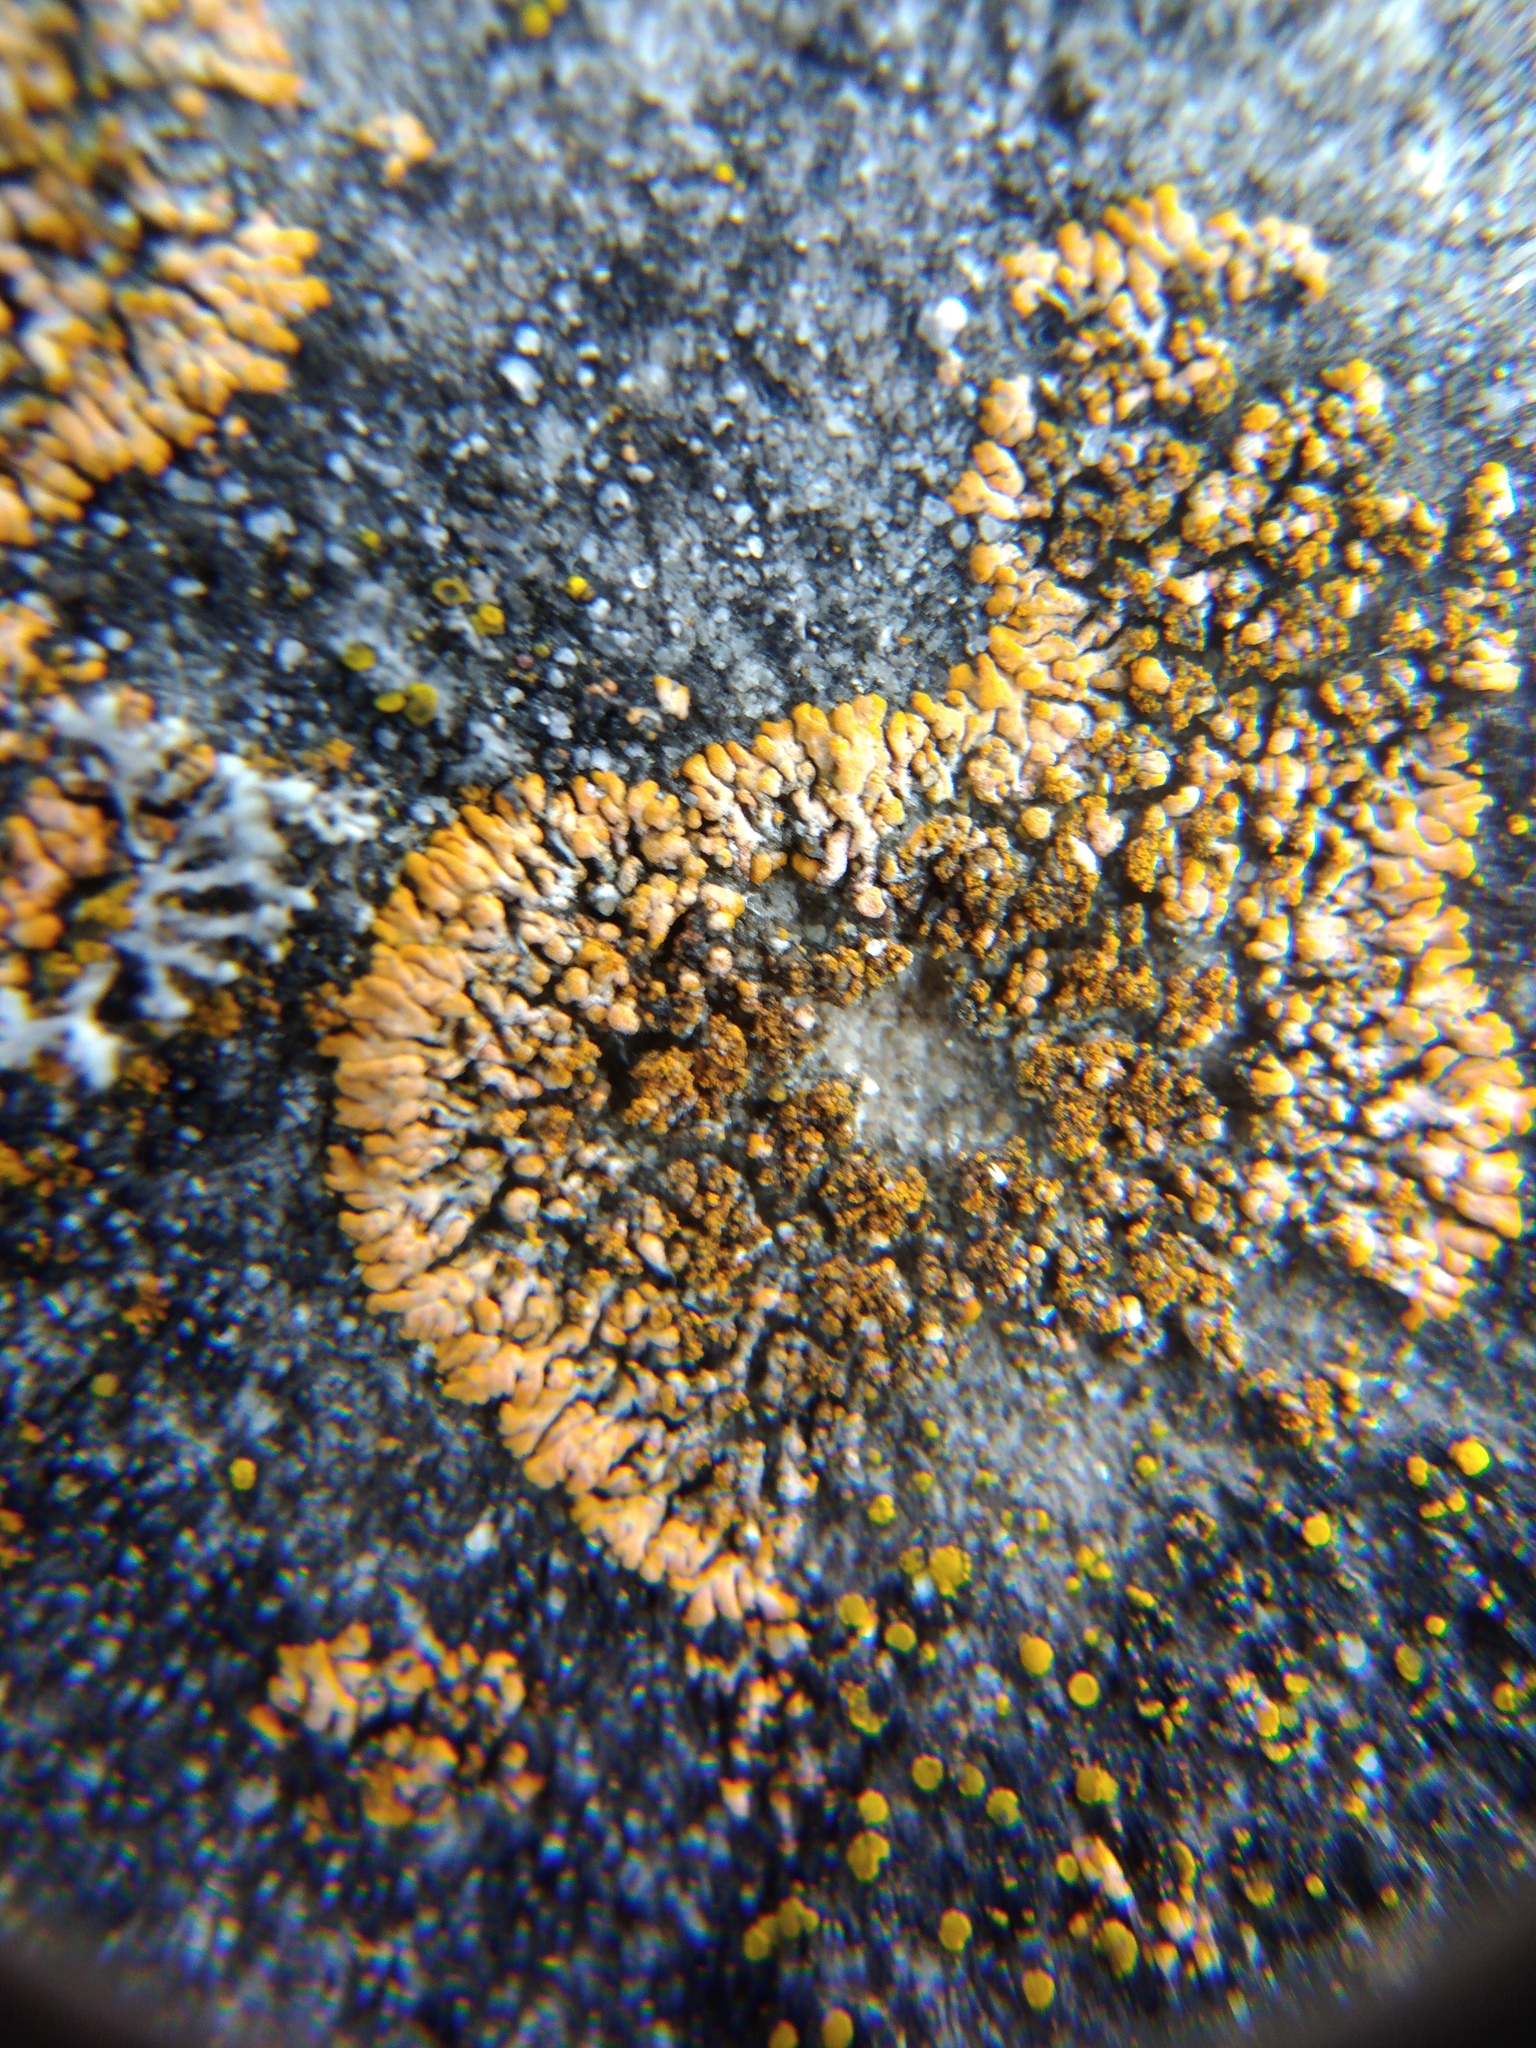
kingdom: Fungi
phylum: Ascomycota
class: Lecanoromycetes
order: Teloschistales
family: Teloschistaceae
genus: Calogaya
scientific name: Calogaya decipiens
